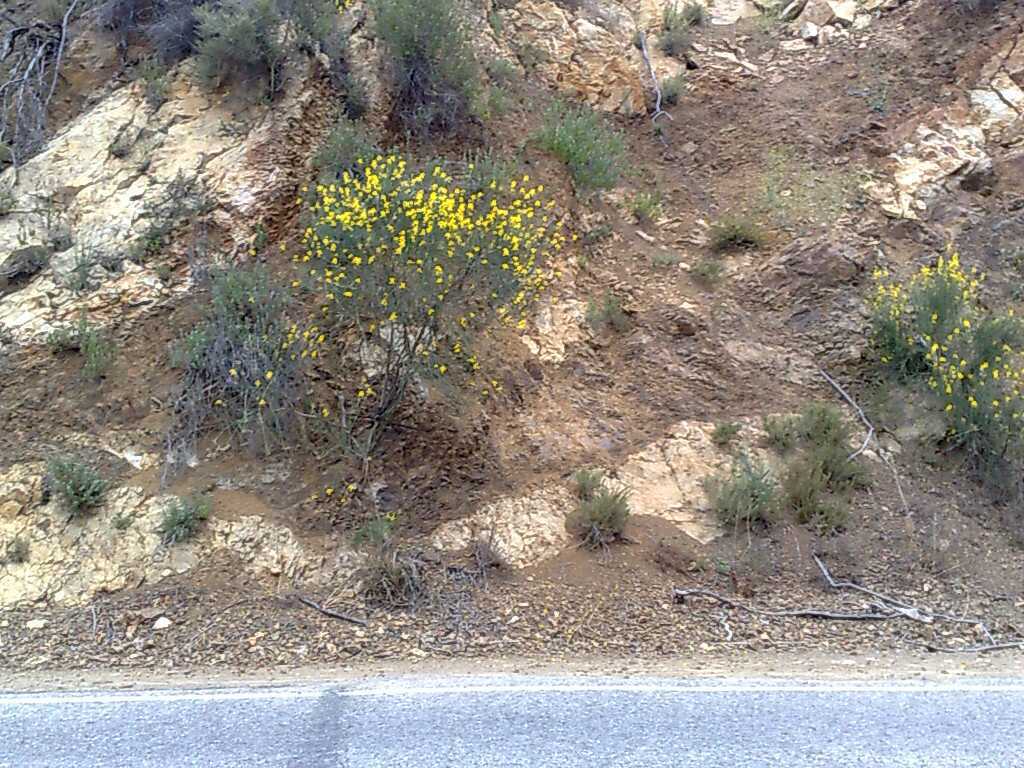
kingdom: Plantae
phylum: Tracheophyta
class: Magnoliopsida
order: Fabales
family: Fabaceae
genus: Spartium
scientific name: Spartium junceum
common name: Spanish broom
